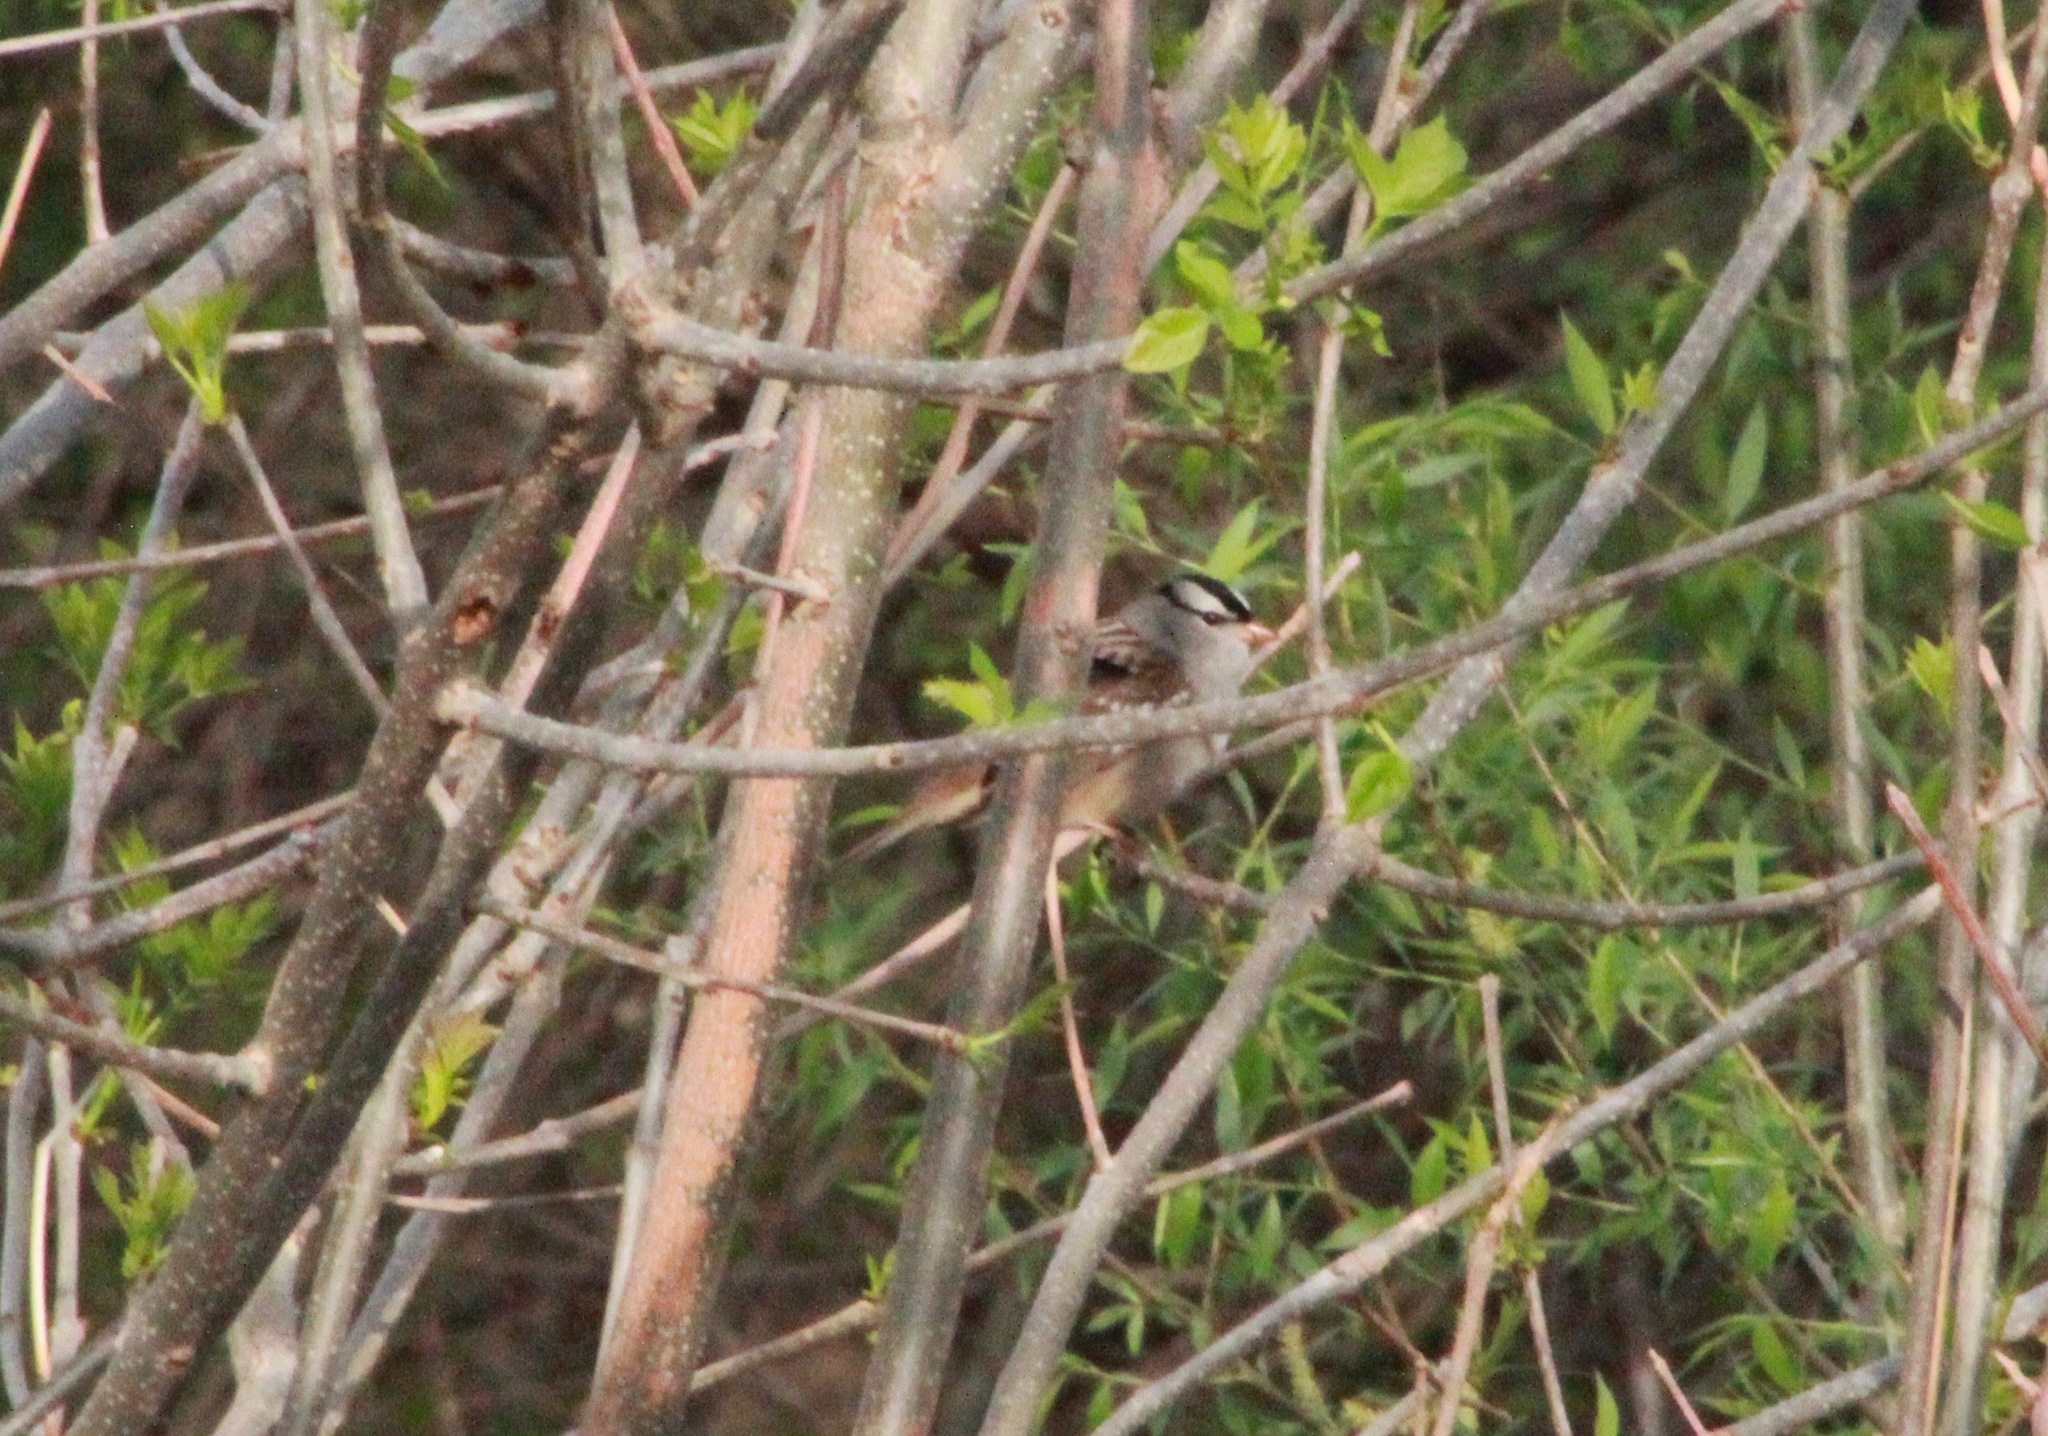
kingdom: Animalia
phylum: Chordata
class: Aves
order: Passeriformes
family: Passerellidae
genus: Zonotrichia
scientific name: Zonotrichia leucophrys
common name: White-crowned sparrow
